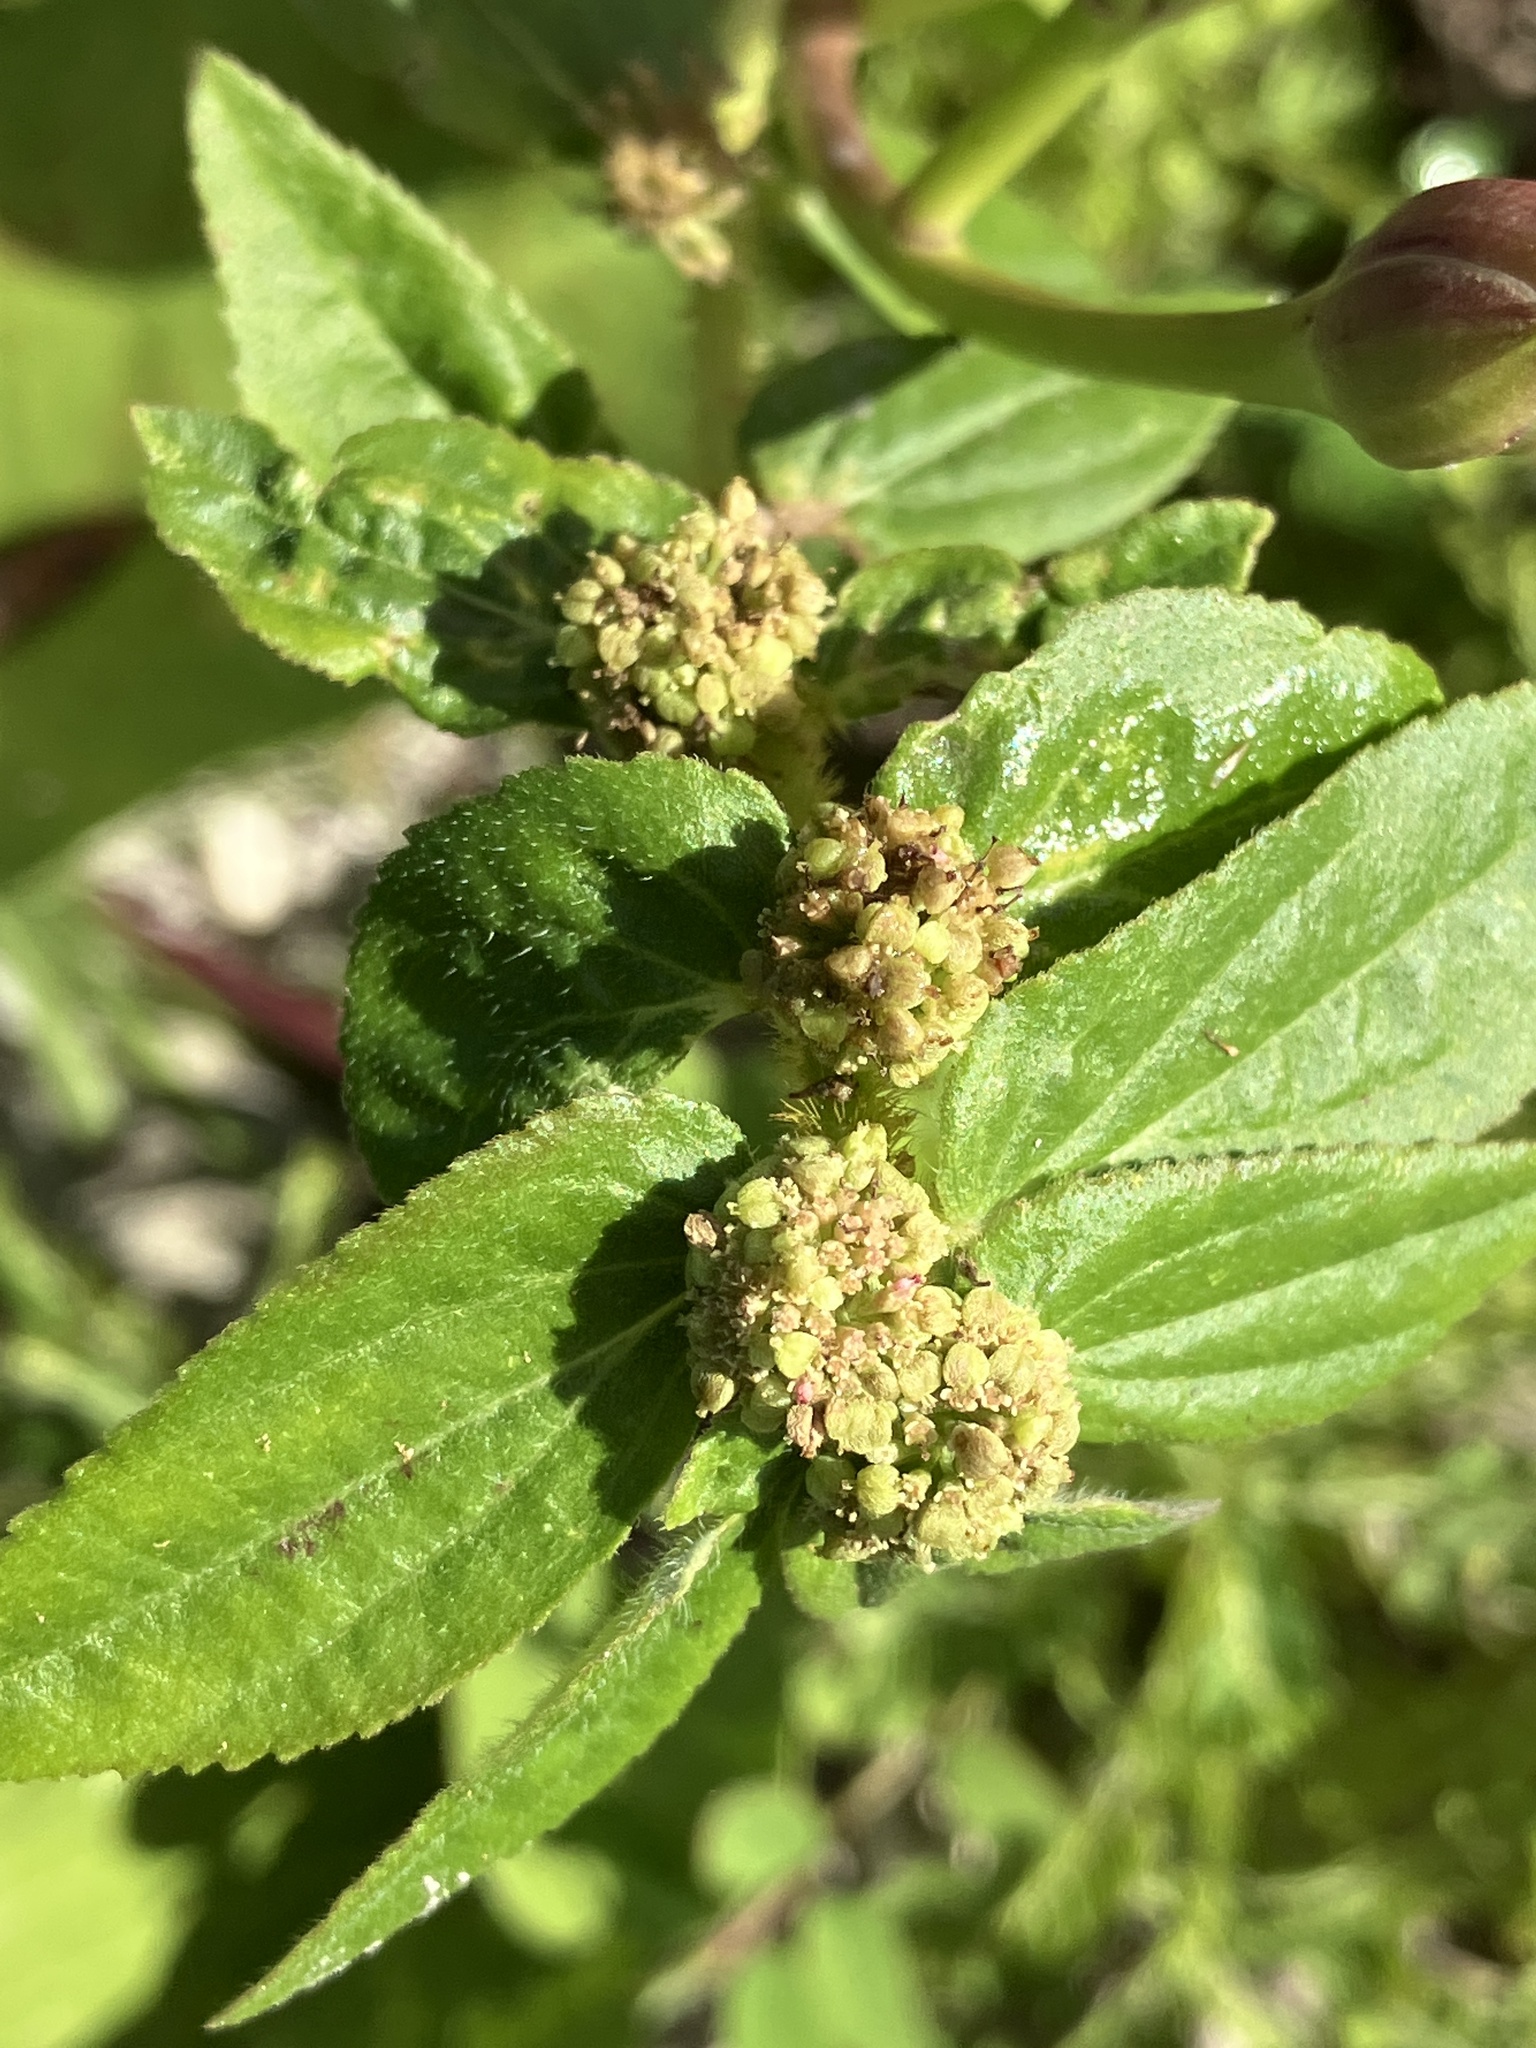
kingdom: Plantae
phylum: Tracheophyta
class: Magnoliopsida
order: Malpighiales
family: Euphorbiaceae
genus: Euphorbia
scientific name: Euphorbia hirta
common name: Pillpod sandmat
